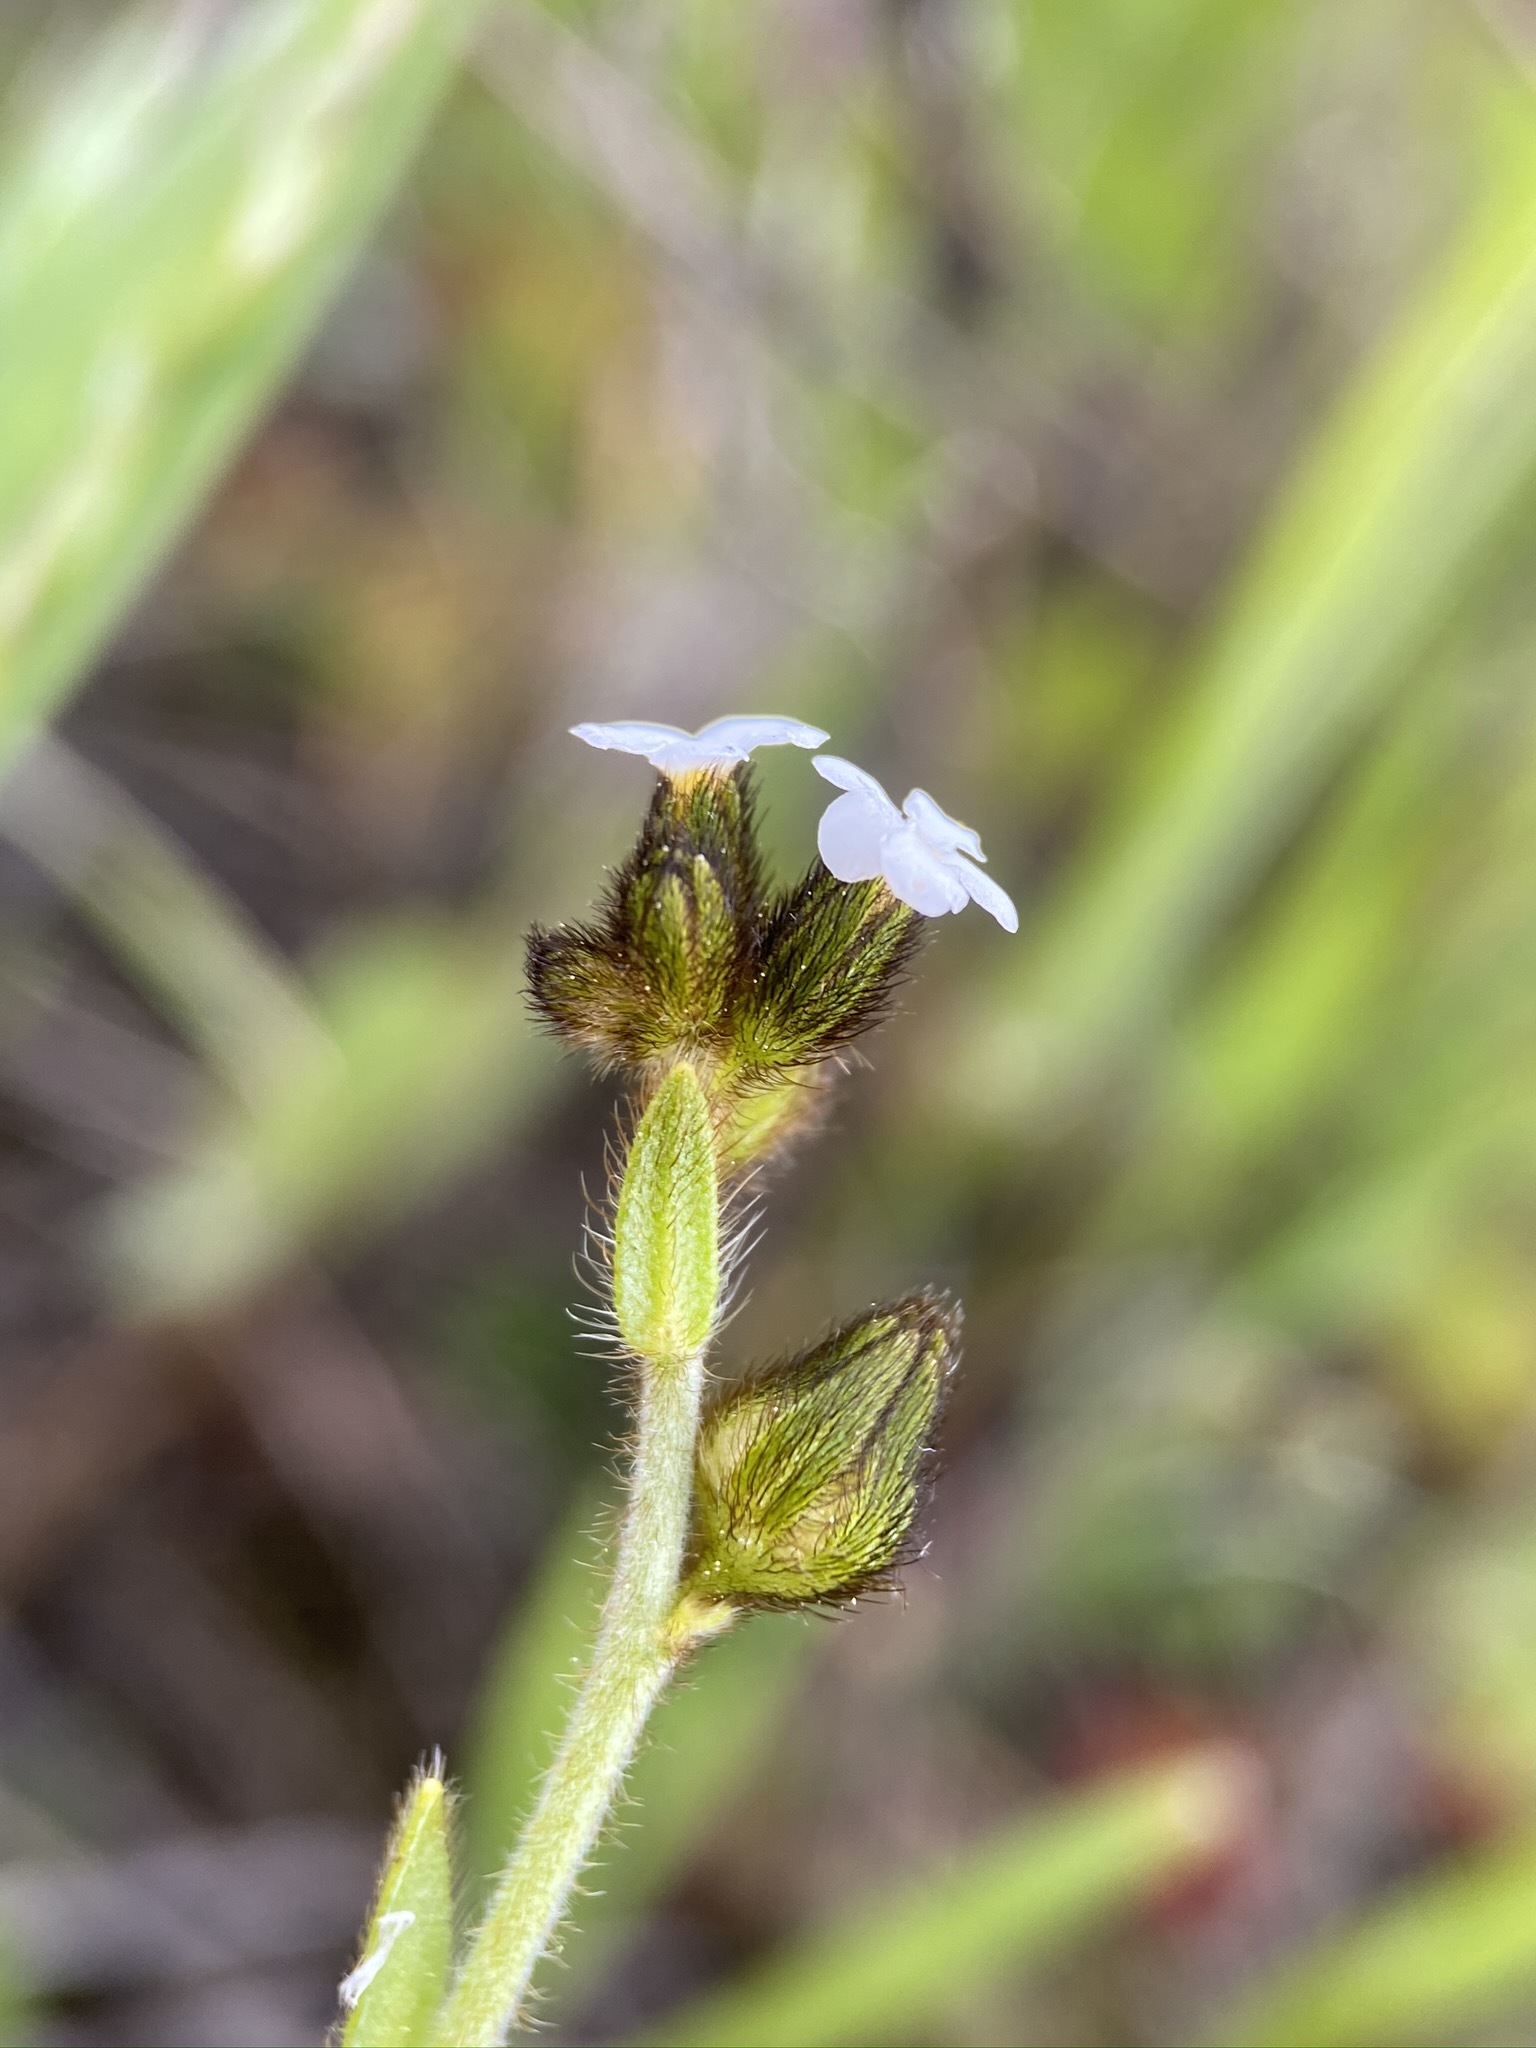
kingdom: Plantae
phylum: Tracheophyta
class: Magnoliopsida
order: Boraginales
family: Boraginaceae
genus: Plagiobothrys
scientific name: Plagiobothrys fulvus
